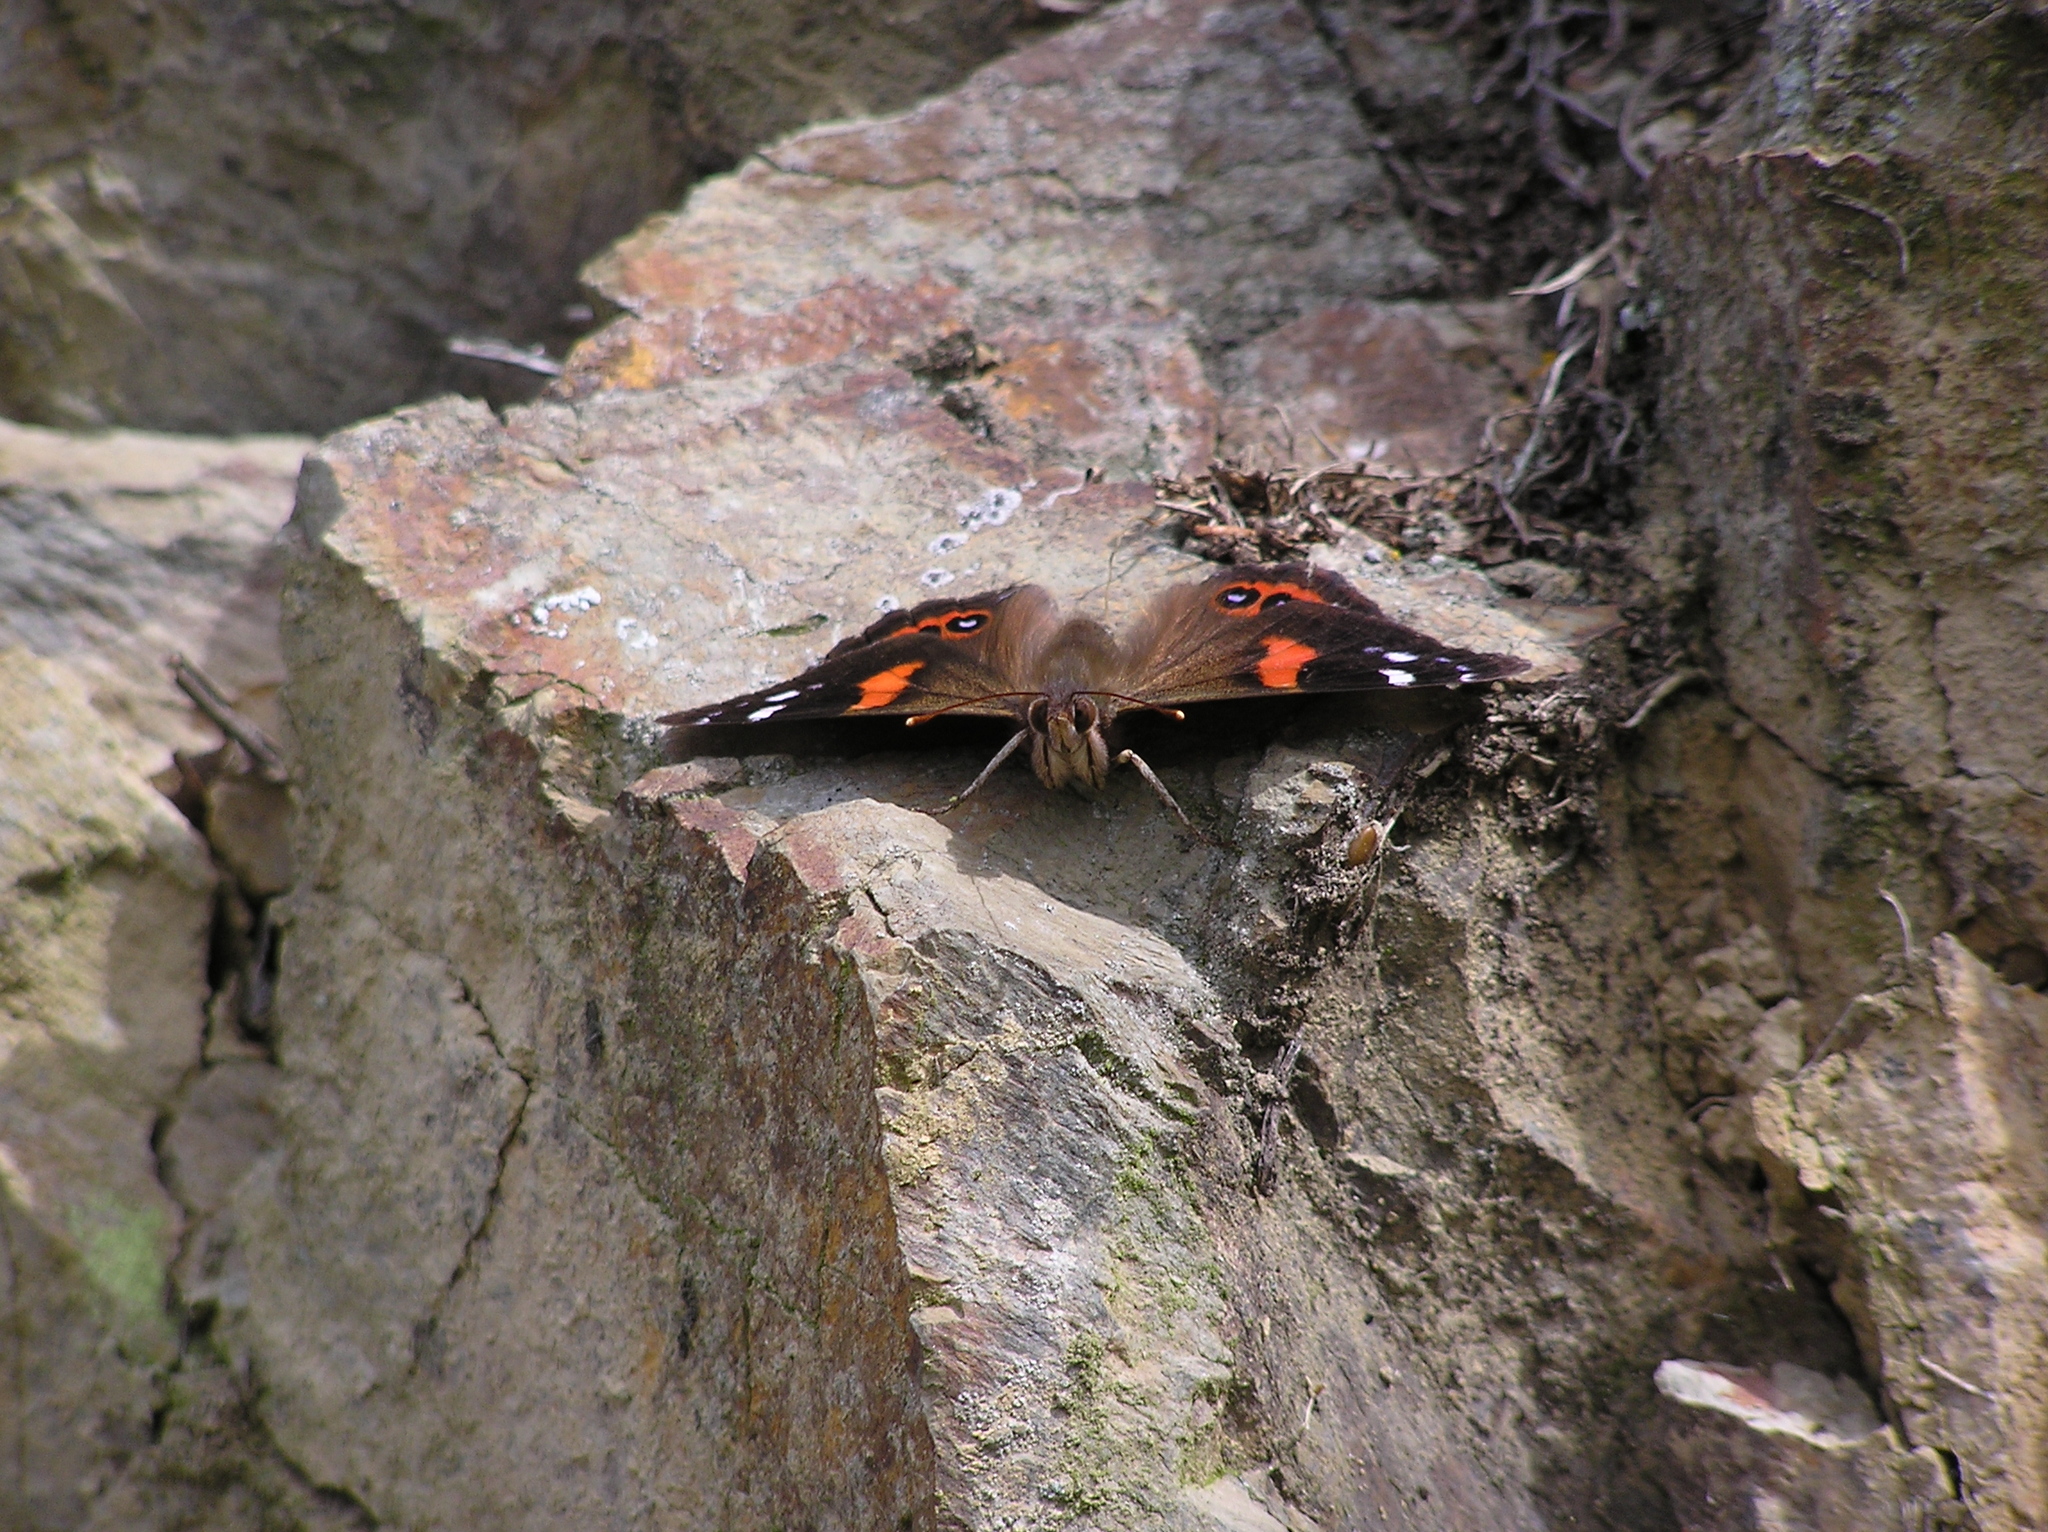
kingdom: Animalia
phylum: Arthropoda
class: Insecta
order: Lepidoptera
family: Nymphalidae
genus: Vanessa
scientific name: Vanessa gonerilla
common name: New zealand red admiral
